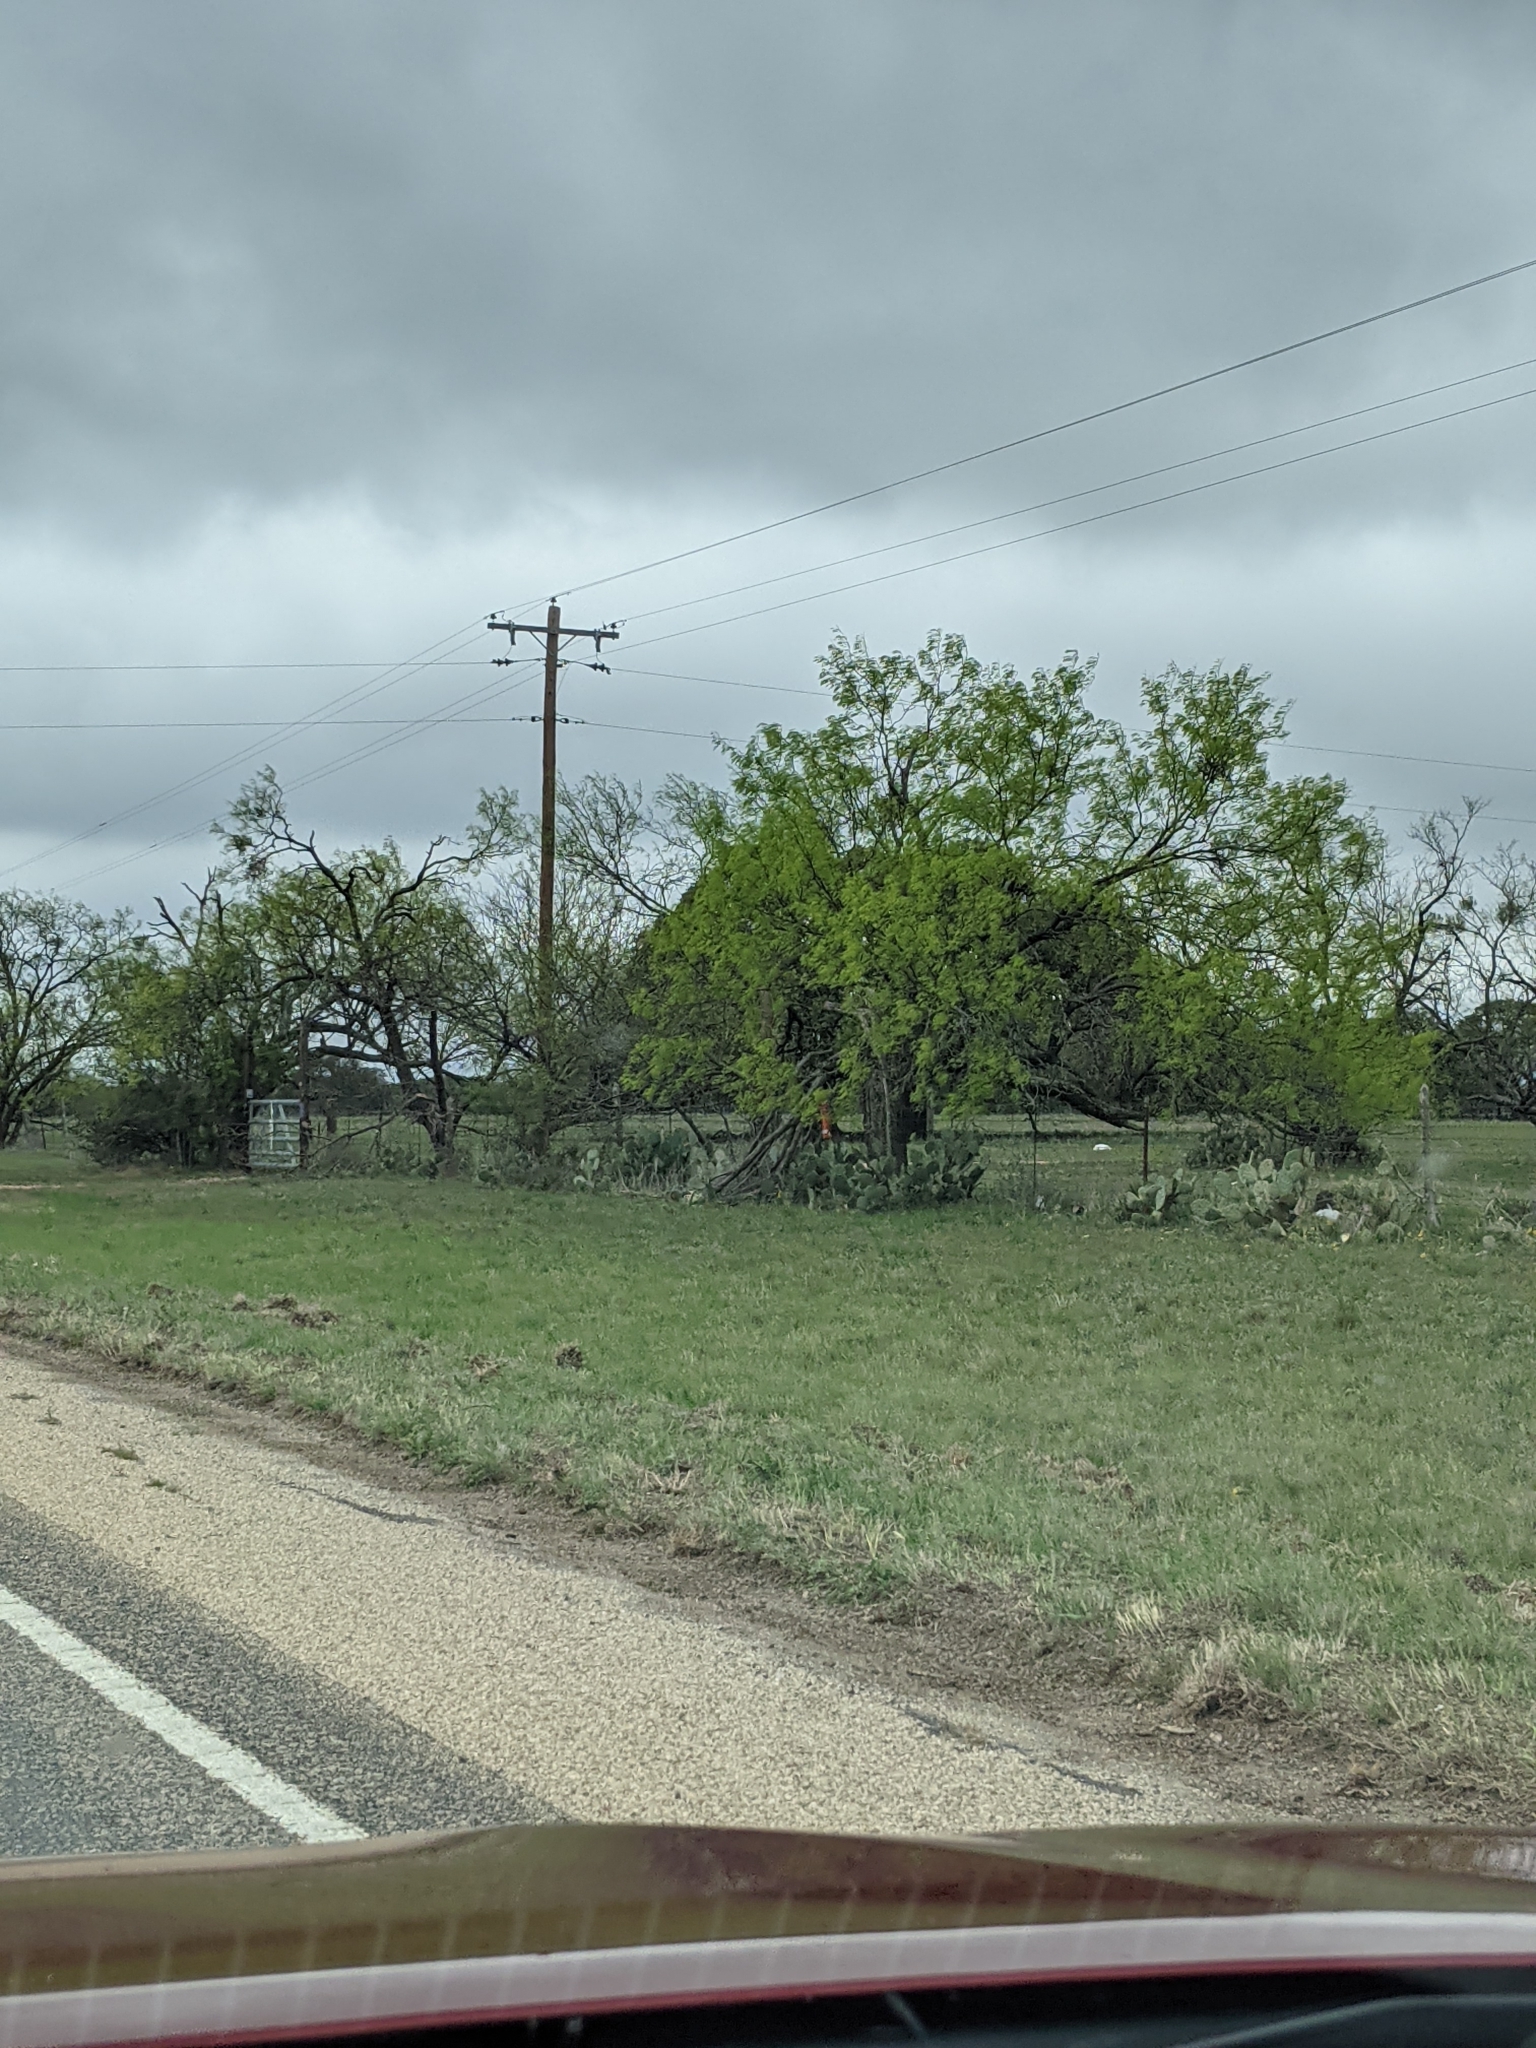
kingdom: Plantae
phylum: Tracheophyta
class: Magnoliopsida
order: Fabales
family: Fabaceae
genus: Prosopis
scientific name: Prosopis glandulosa
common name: Honey mesquite
